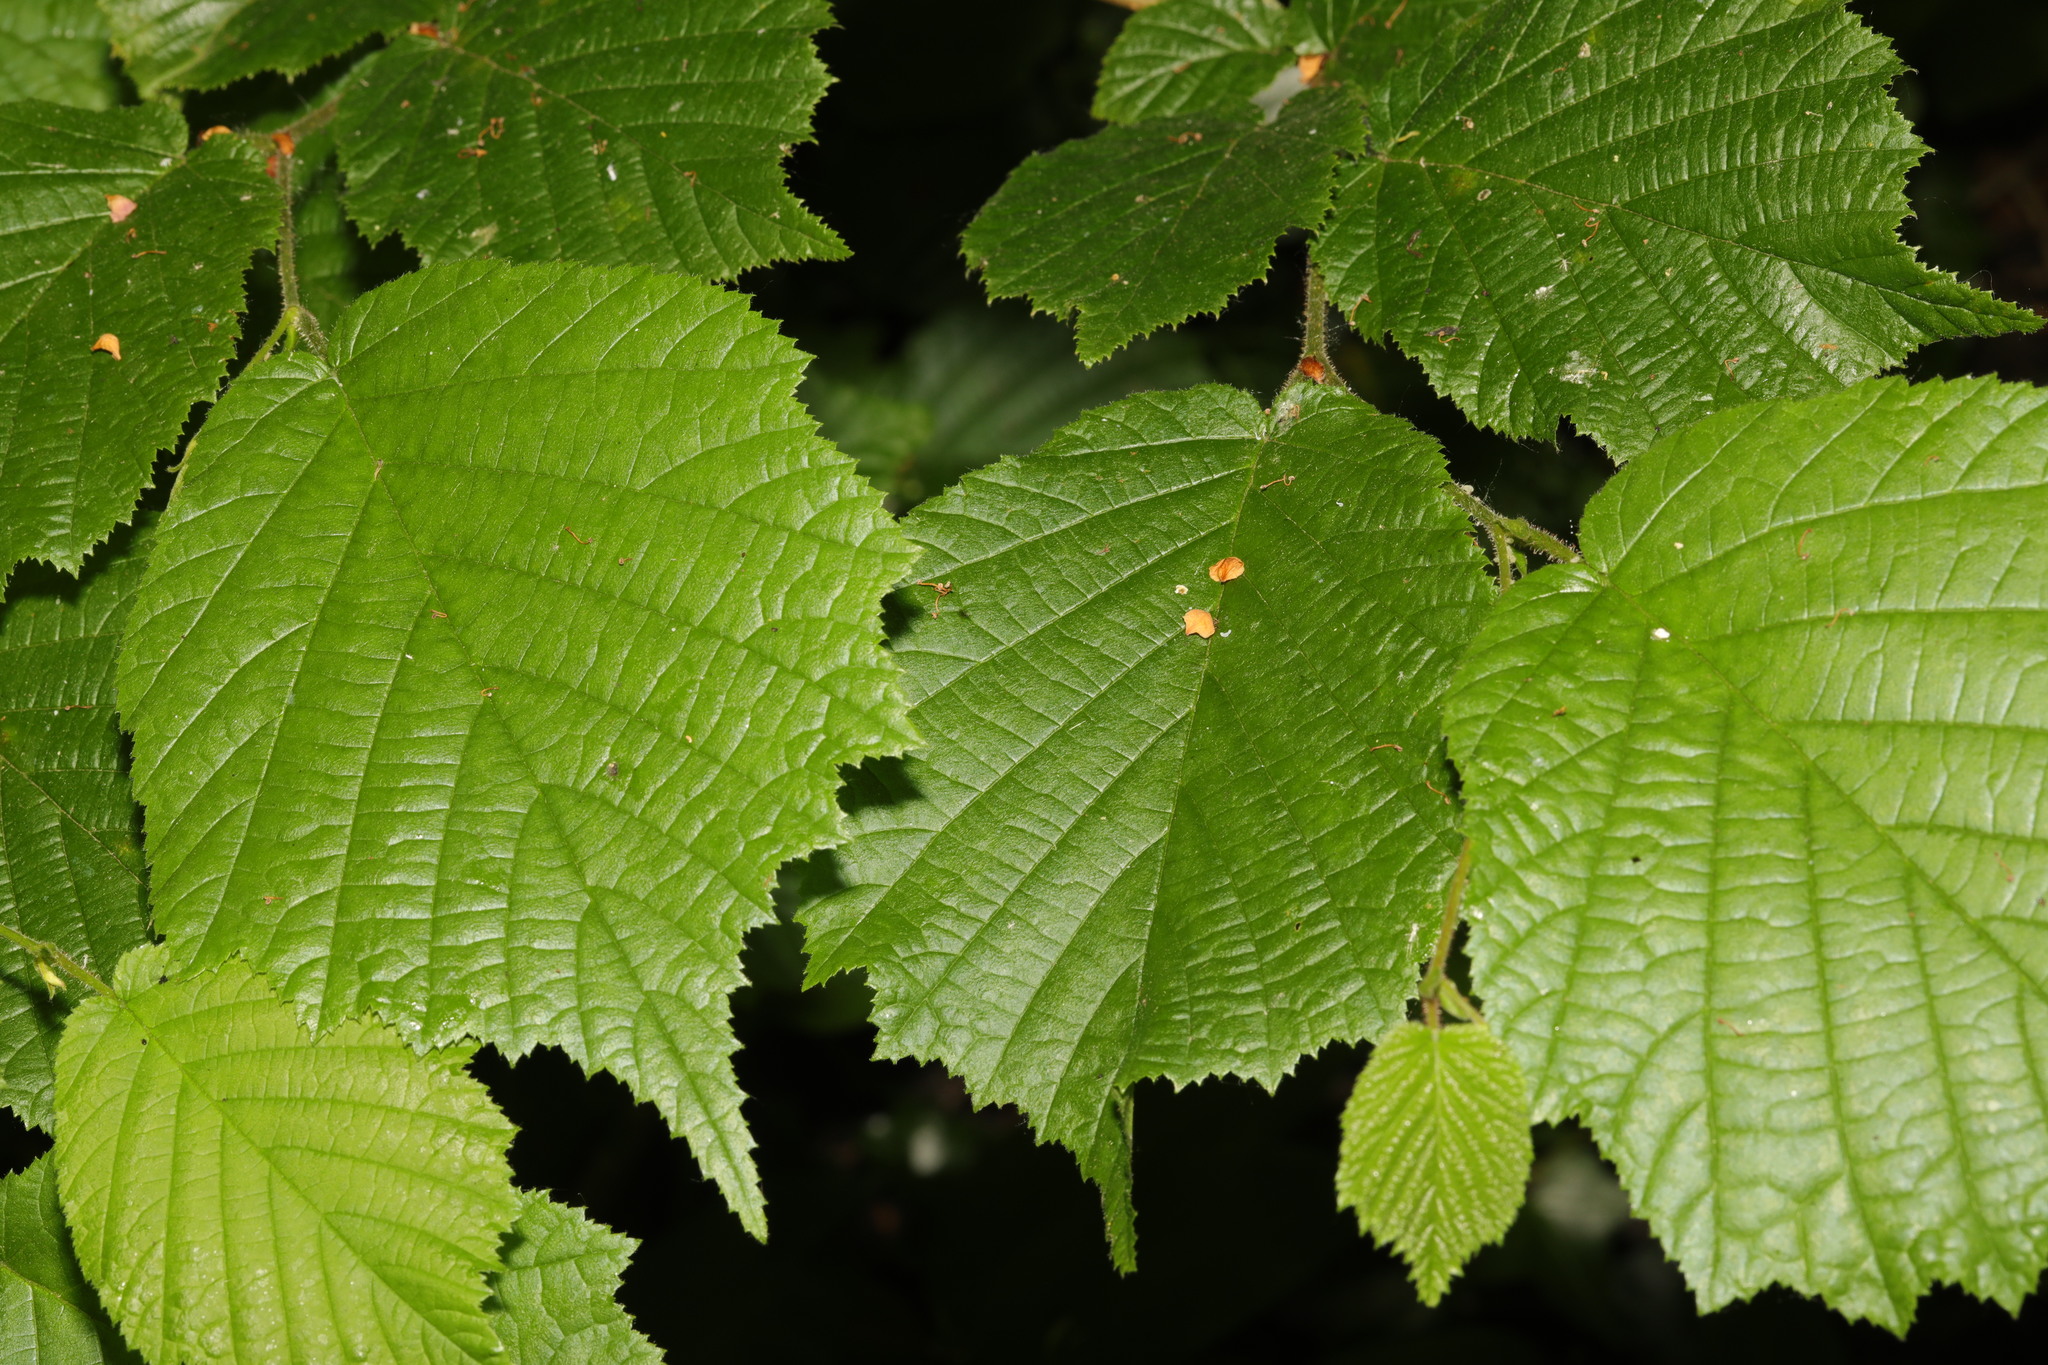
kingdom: Plantae
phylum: Tracheophyta
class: Magnoliopsida
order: Fagales
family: Betulaceae
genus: Corylus
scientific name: Corylus avellana
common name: European hazel
